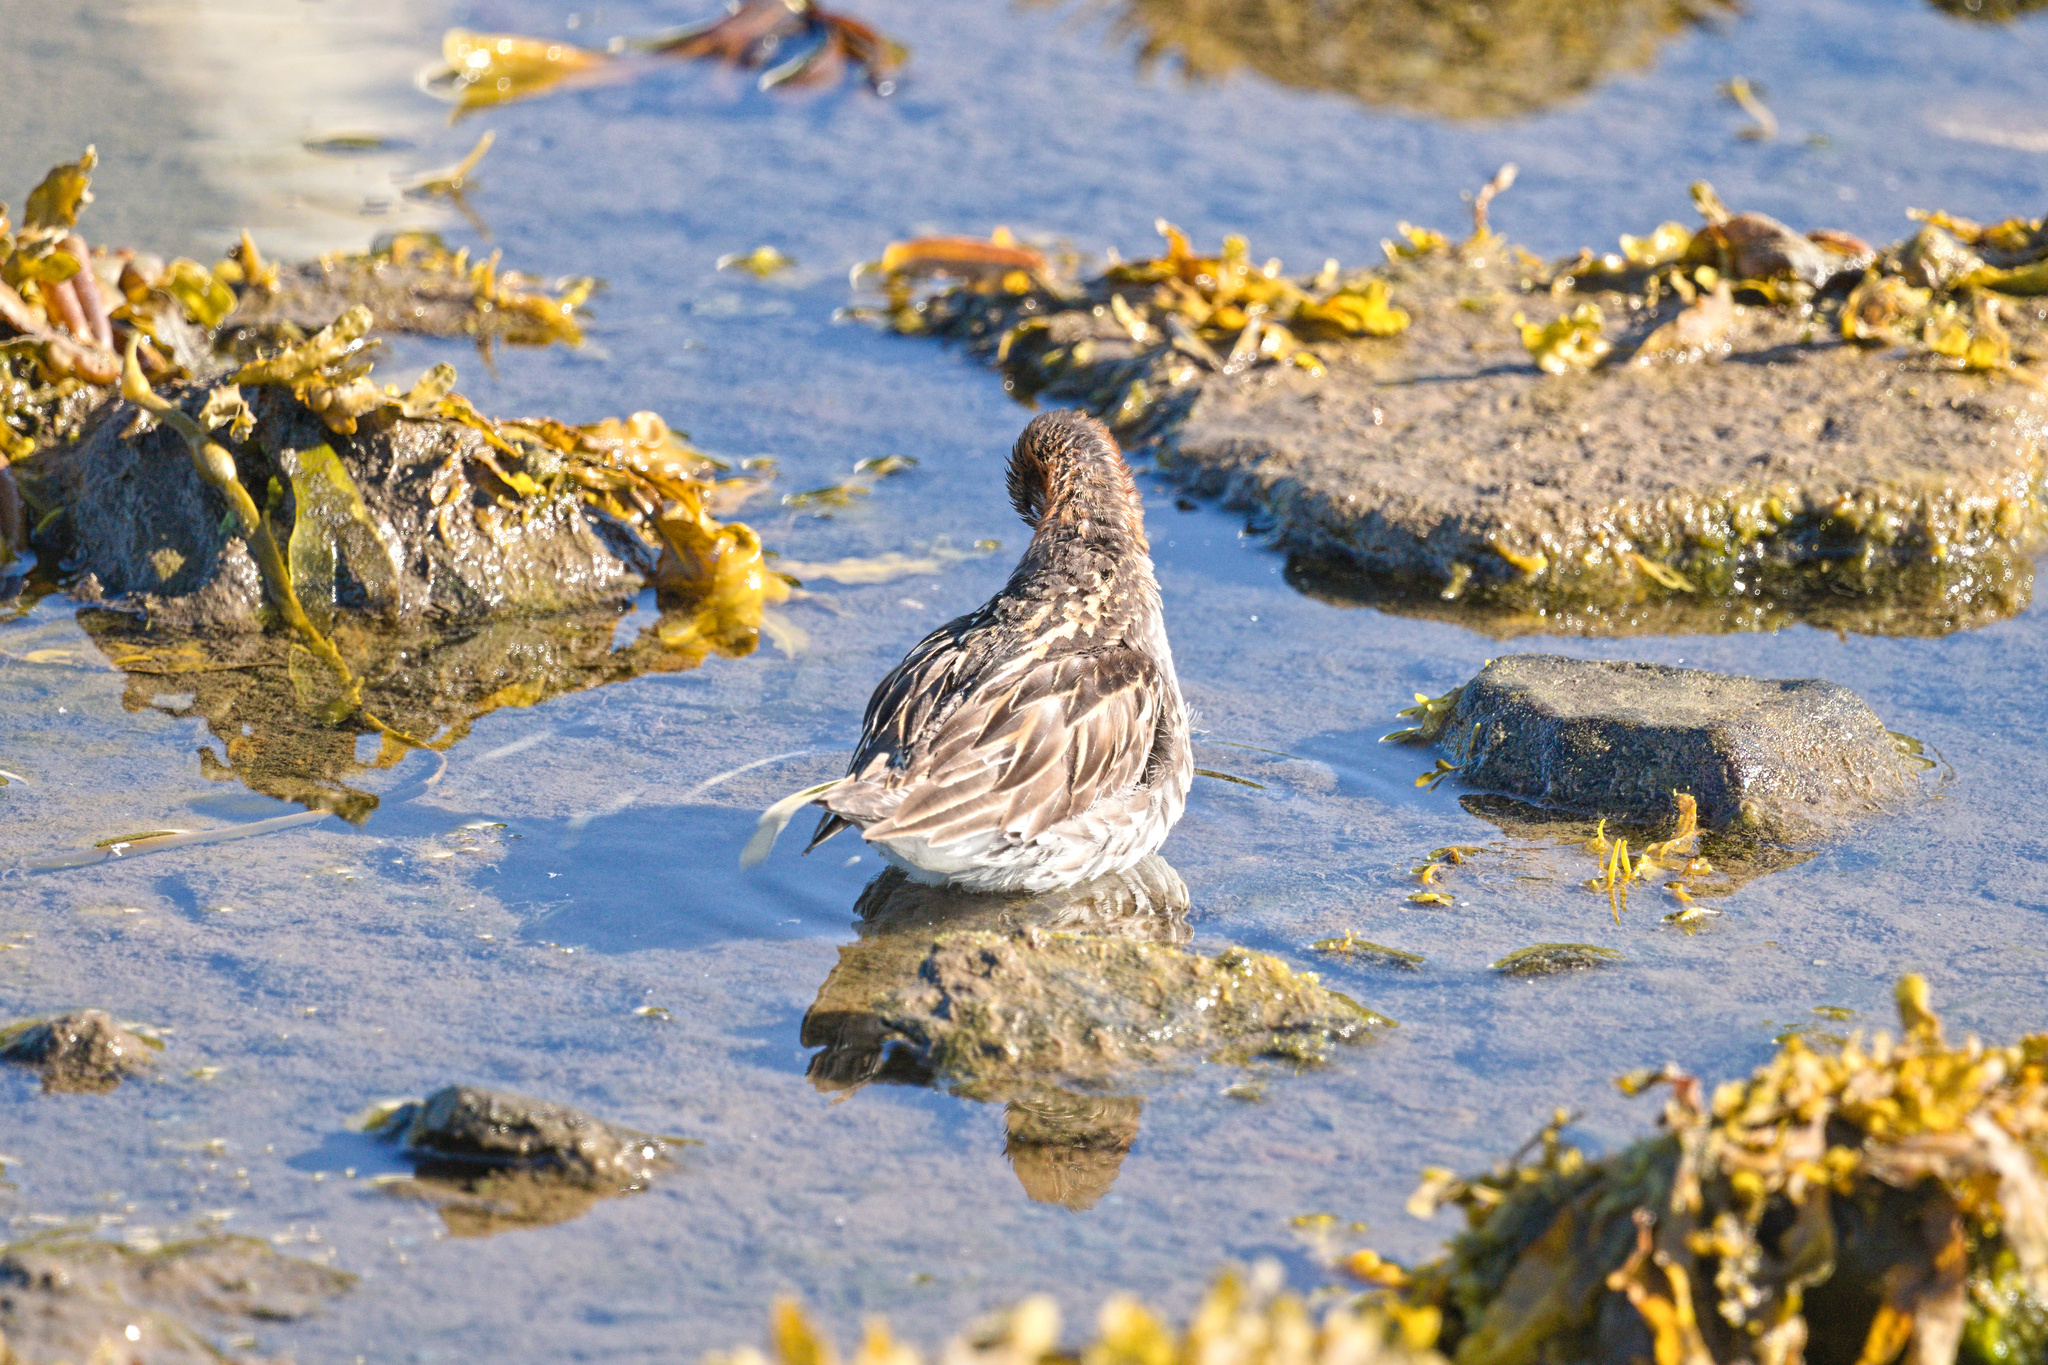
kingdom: Animalia
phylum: Chordata
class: Aves
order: Charadriiformes
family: Scolopacidae
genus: Phalaropus
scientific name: Phalaropus lobatus
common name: Red-necked phalarope
